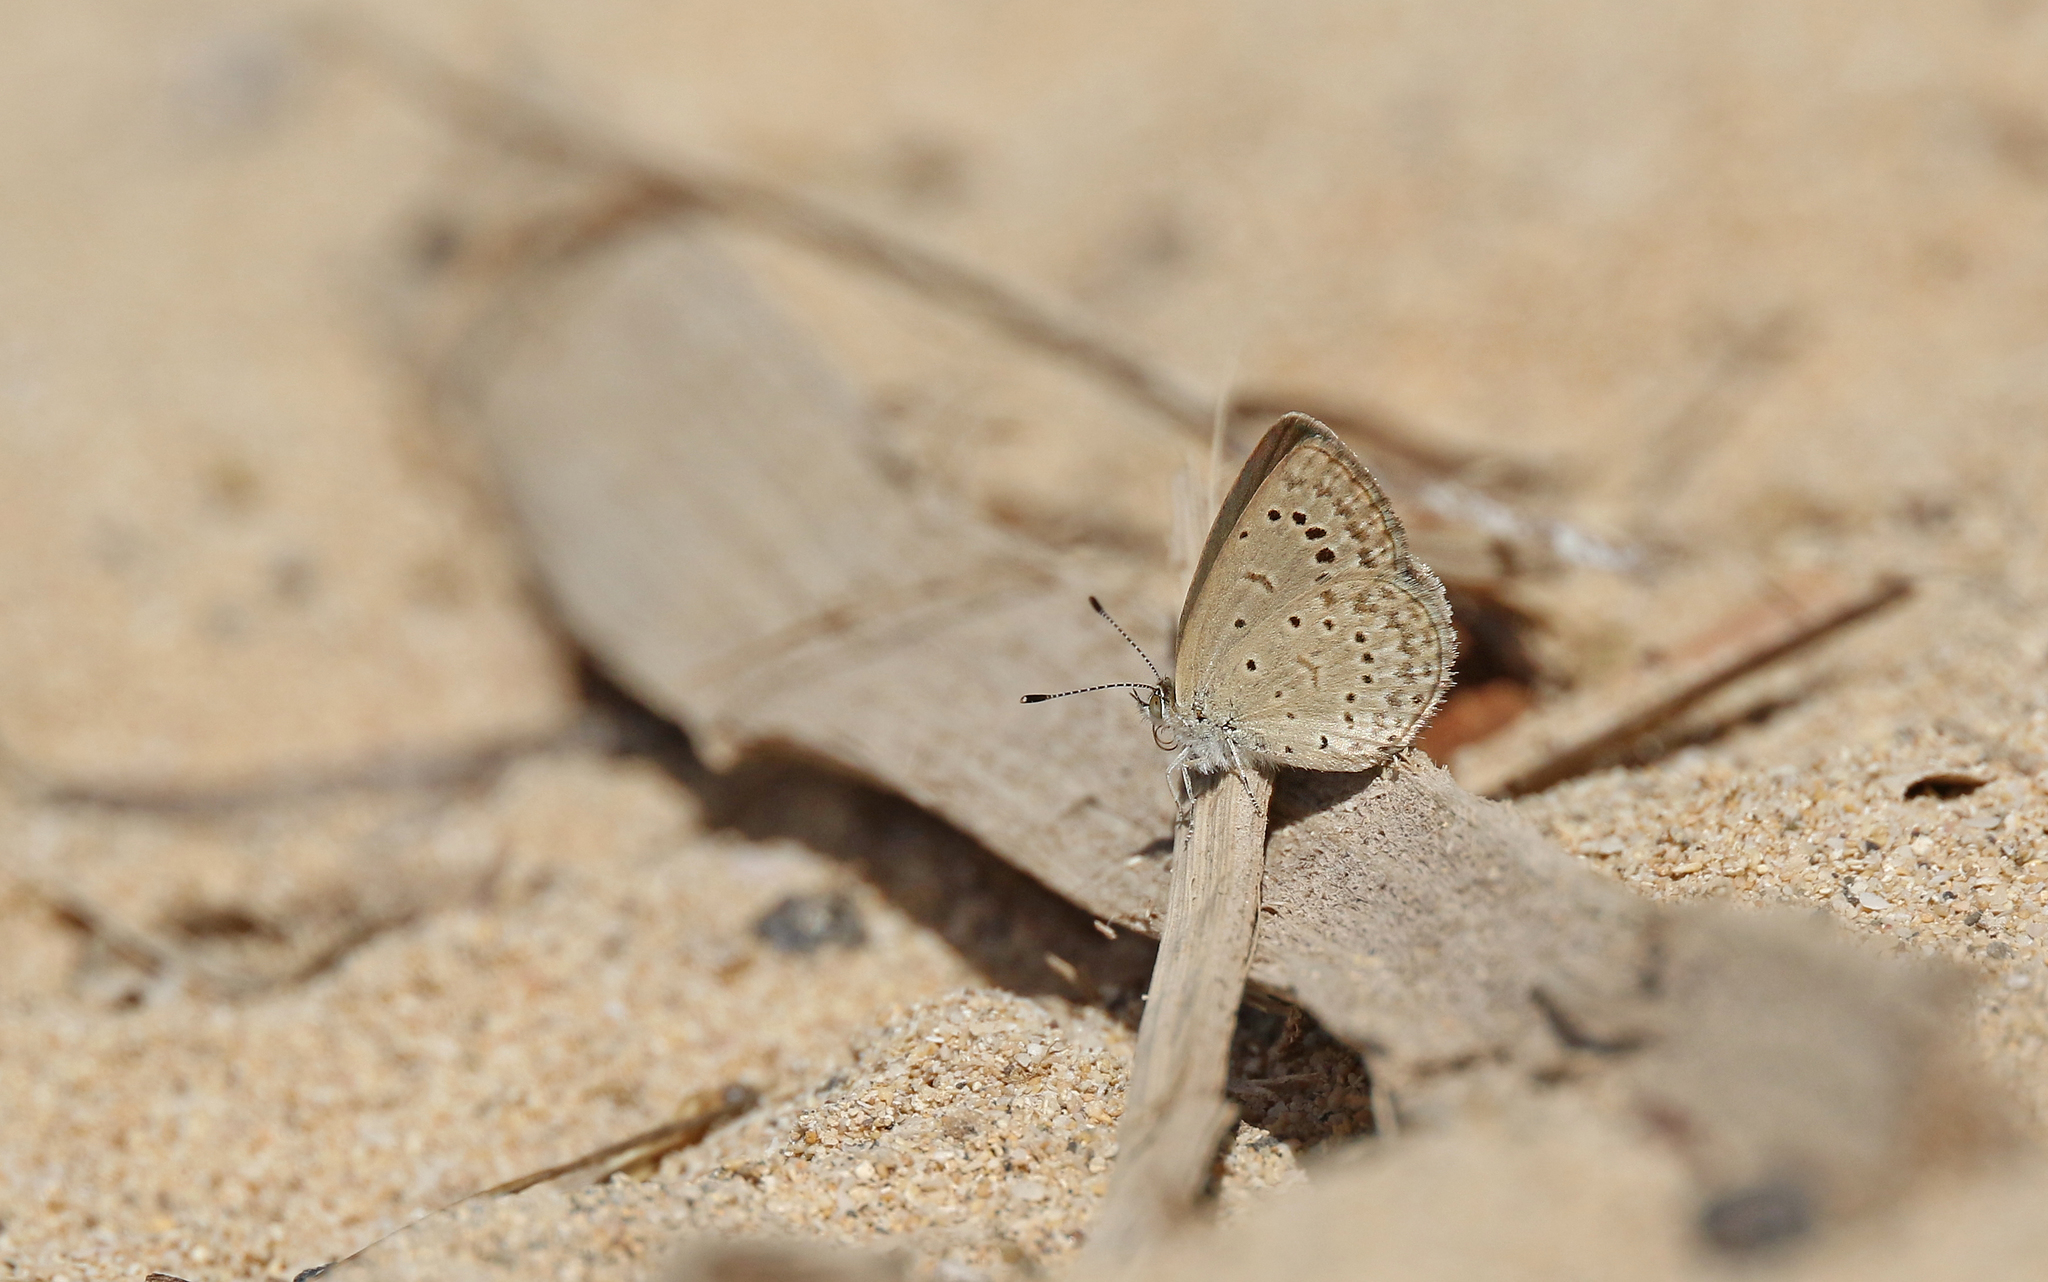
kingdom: Animalia
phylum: Arthropoda
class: Insecta
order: Lepidoptera
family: Lycaenidae
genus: Zizeeria
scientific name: Zizeeria knysna
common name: African grass blue
